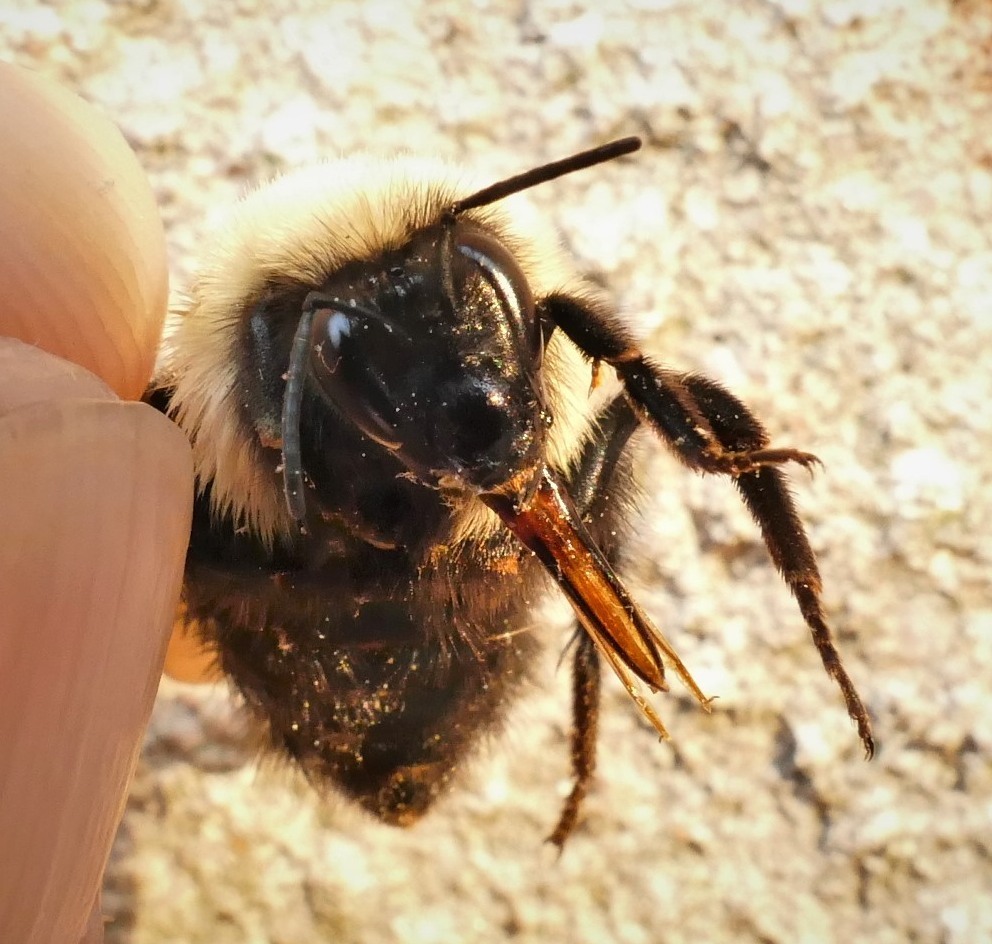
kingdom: Animalia
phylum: Arthropoda
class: Insecta
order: Hymenoptera
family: Apidae
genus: Bombus
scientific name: Bombus bimaculatus
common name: Two-spotted bumble bee
